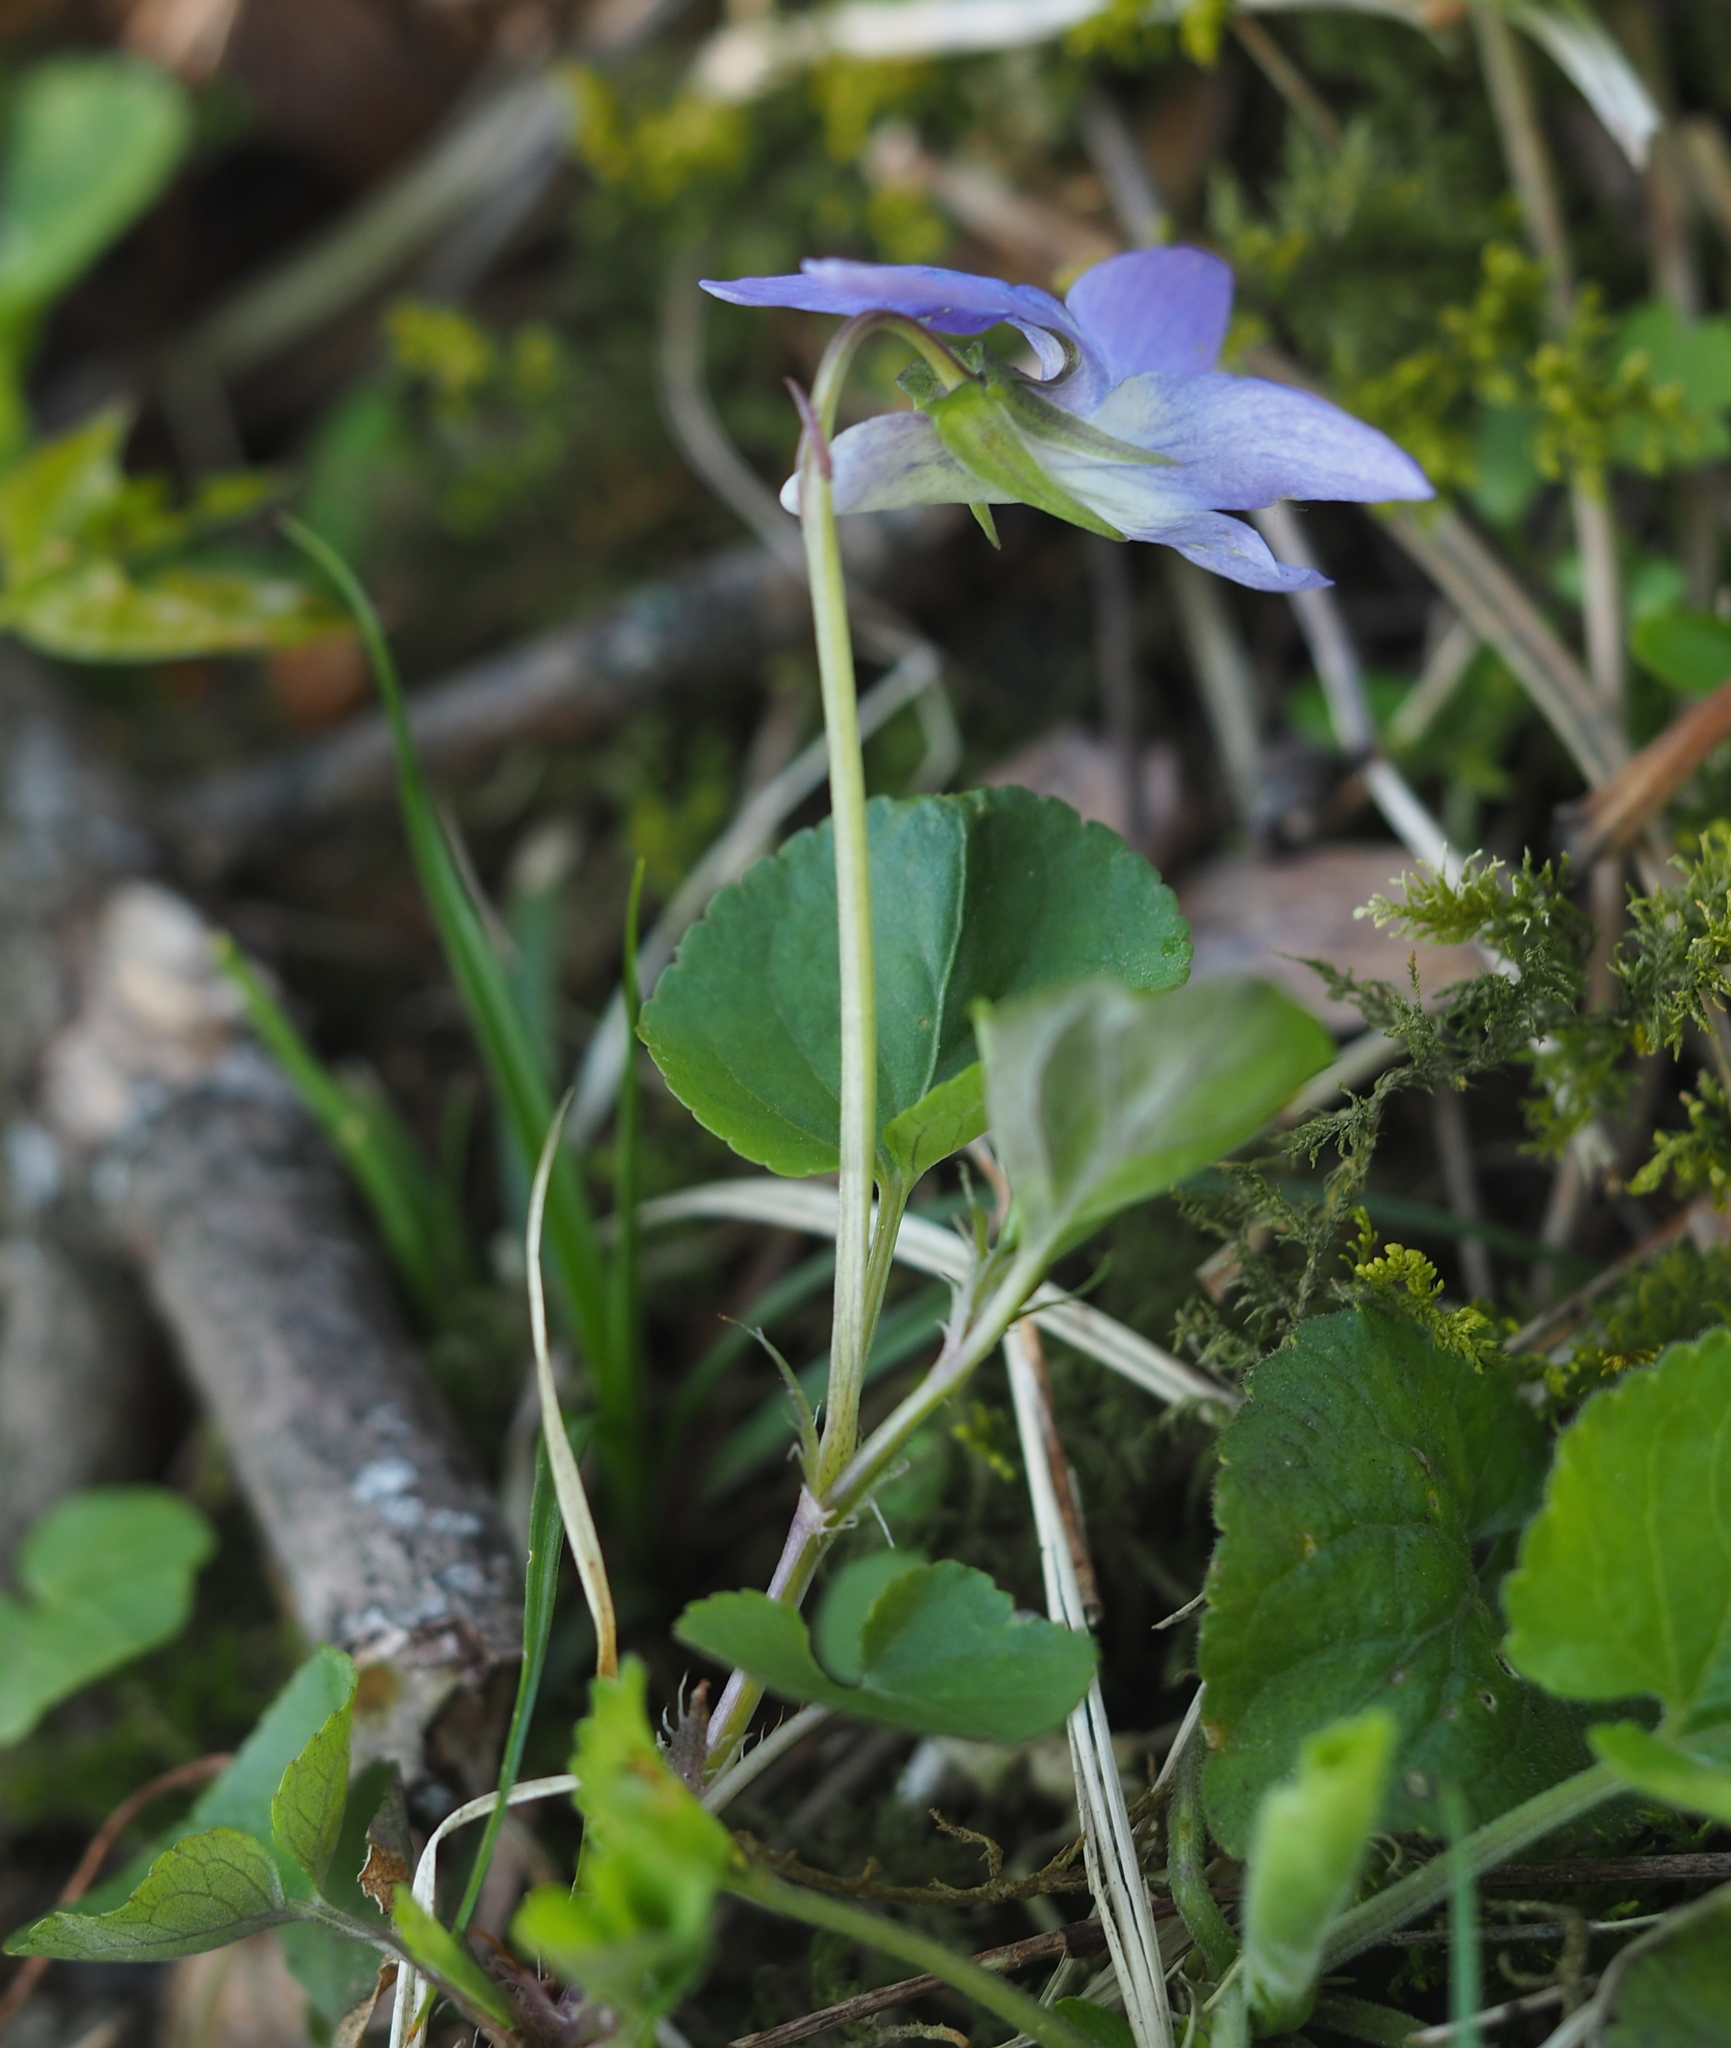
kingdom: Plantae
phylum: Tracheophyta
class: Magnoliopsida
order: Malpighiales
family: Violaceae
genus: Viola
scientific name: Viola riviniana
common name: Common dog-violet
